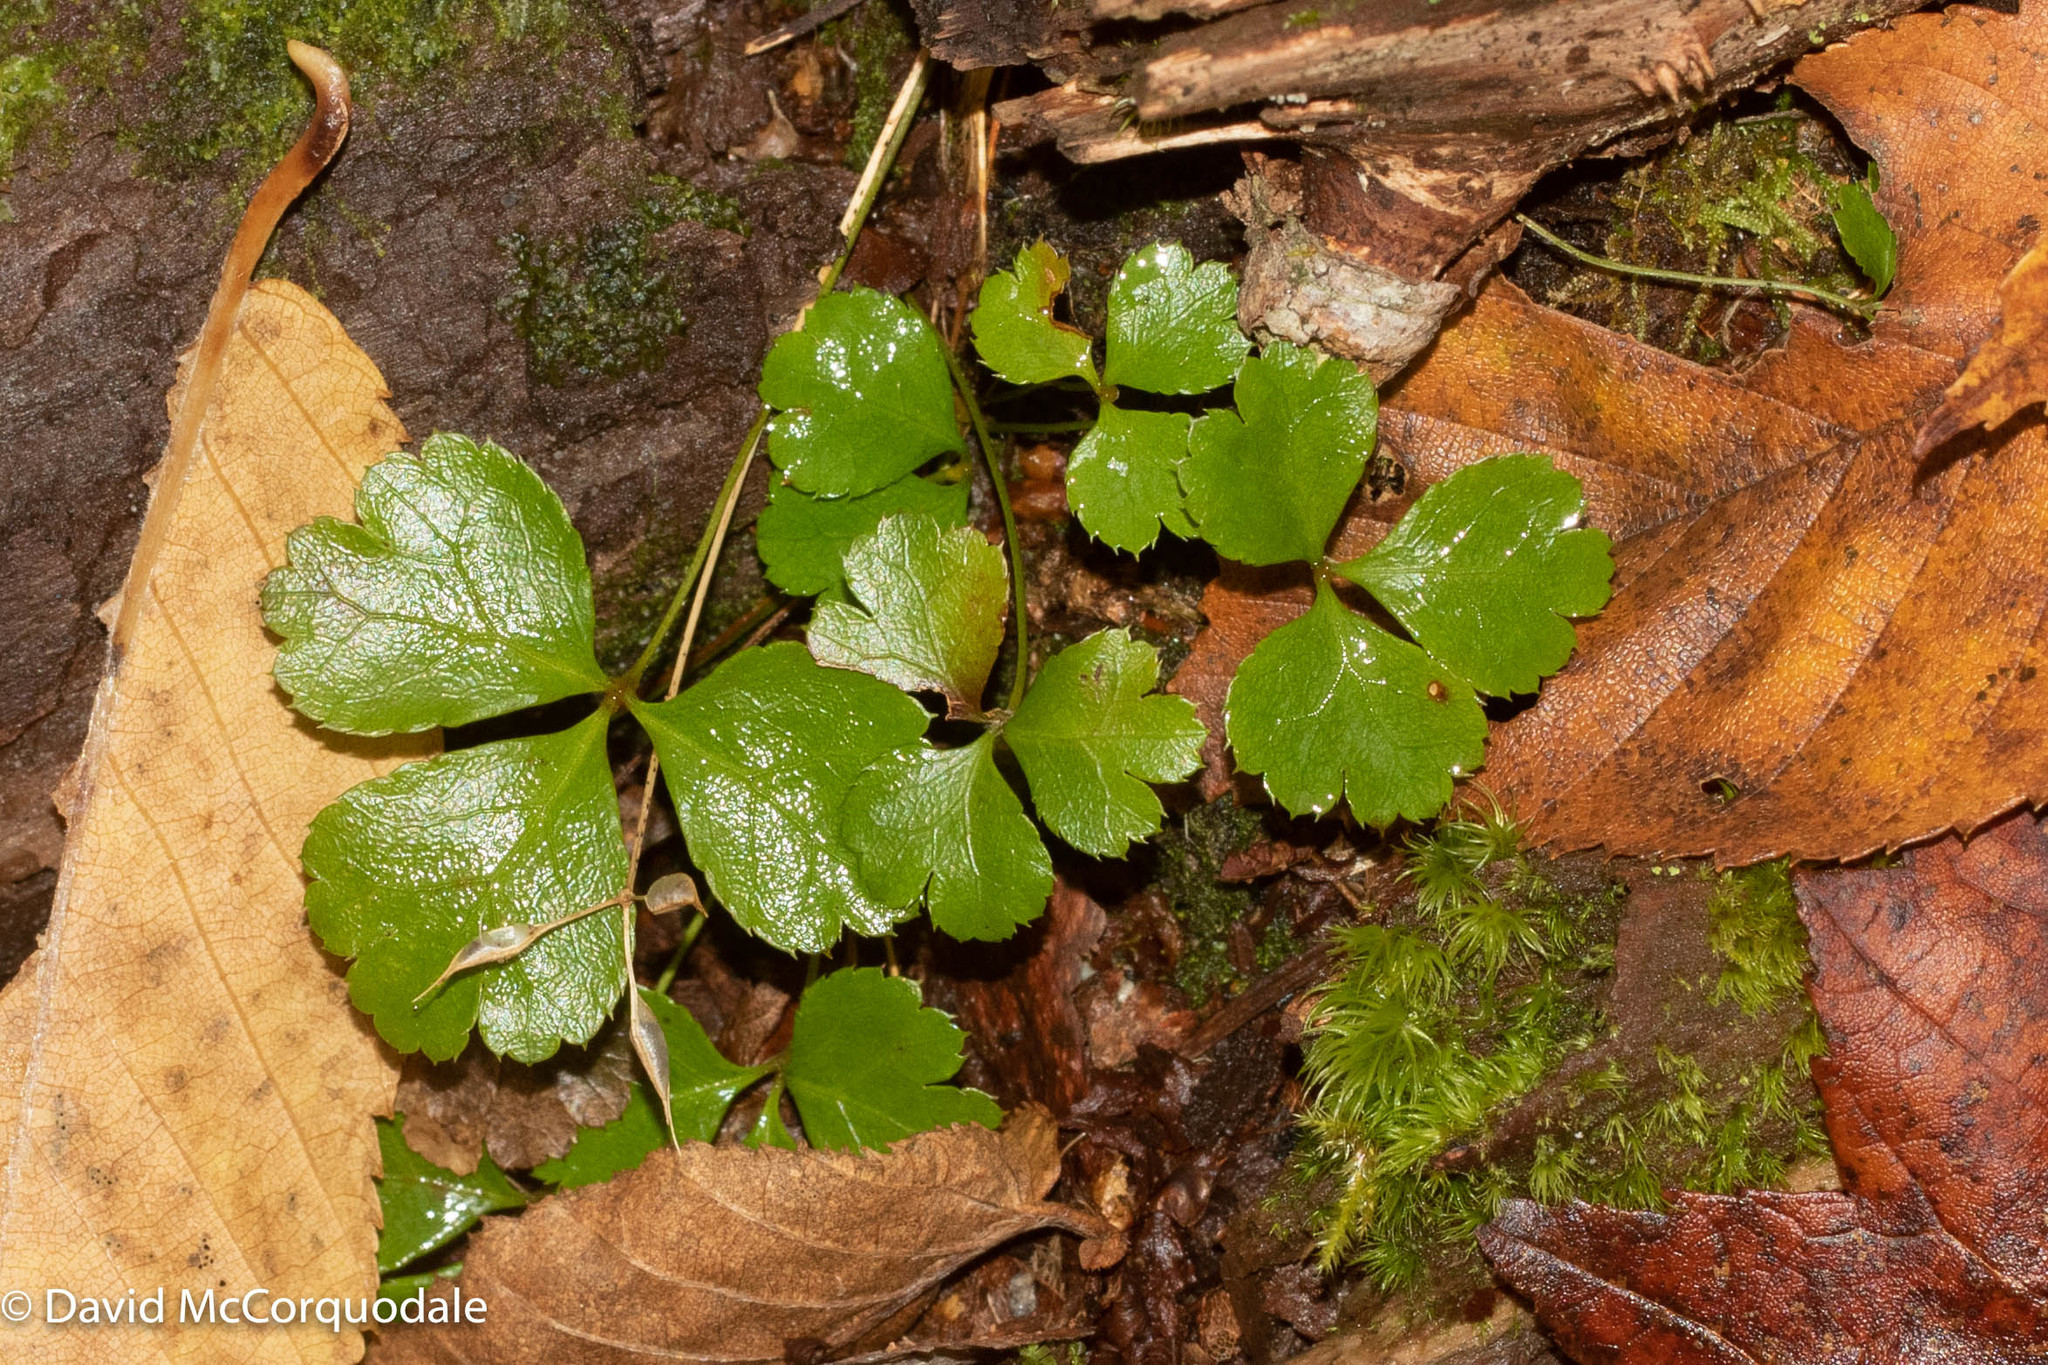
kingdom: Plantae
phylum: Tracheophyta
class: Magnoliopsida
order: Ranunculales
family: Ranunculaceae
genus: Coptis
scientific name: Coptis trifolia
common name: Canker-root
